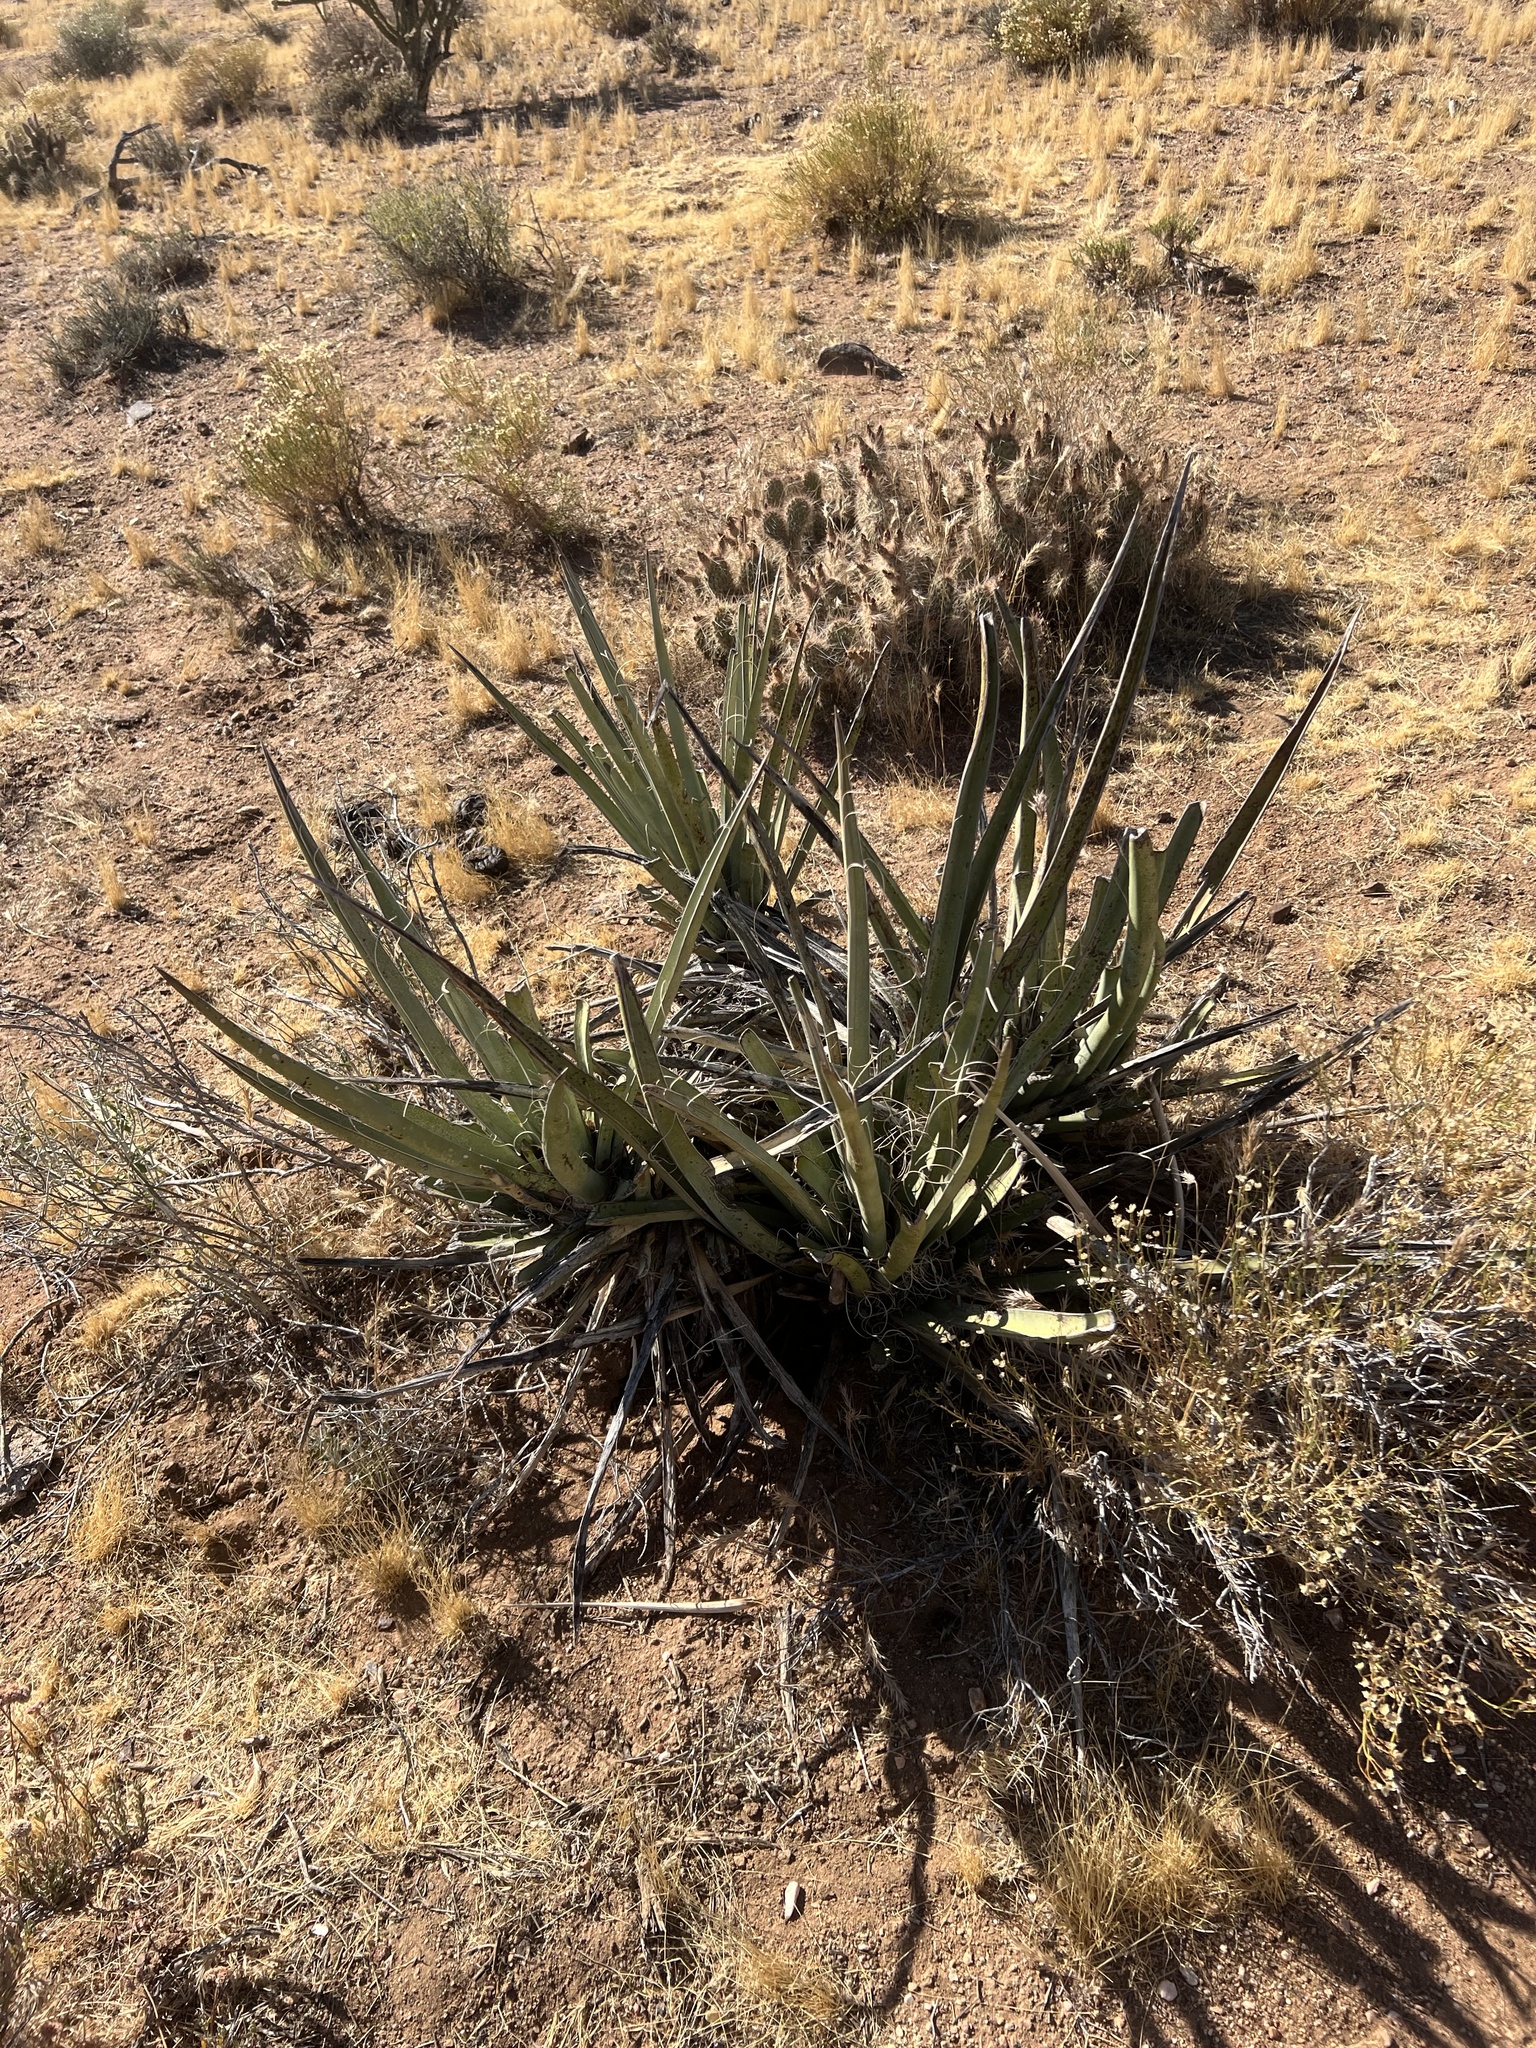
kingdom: Plantae
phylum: Tracheophyta
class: Liliopsida
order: Asparagales
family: Asparagaceae
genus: Yucca
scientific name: Yucca baccata
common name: Banana yucca
